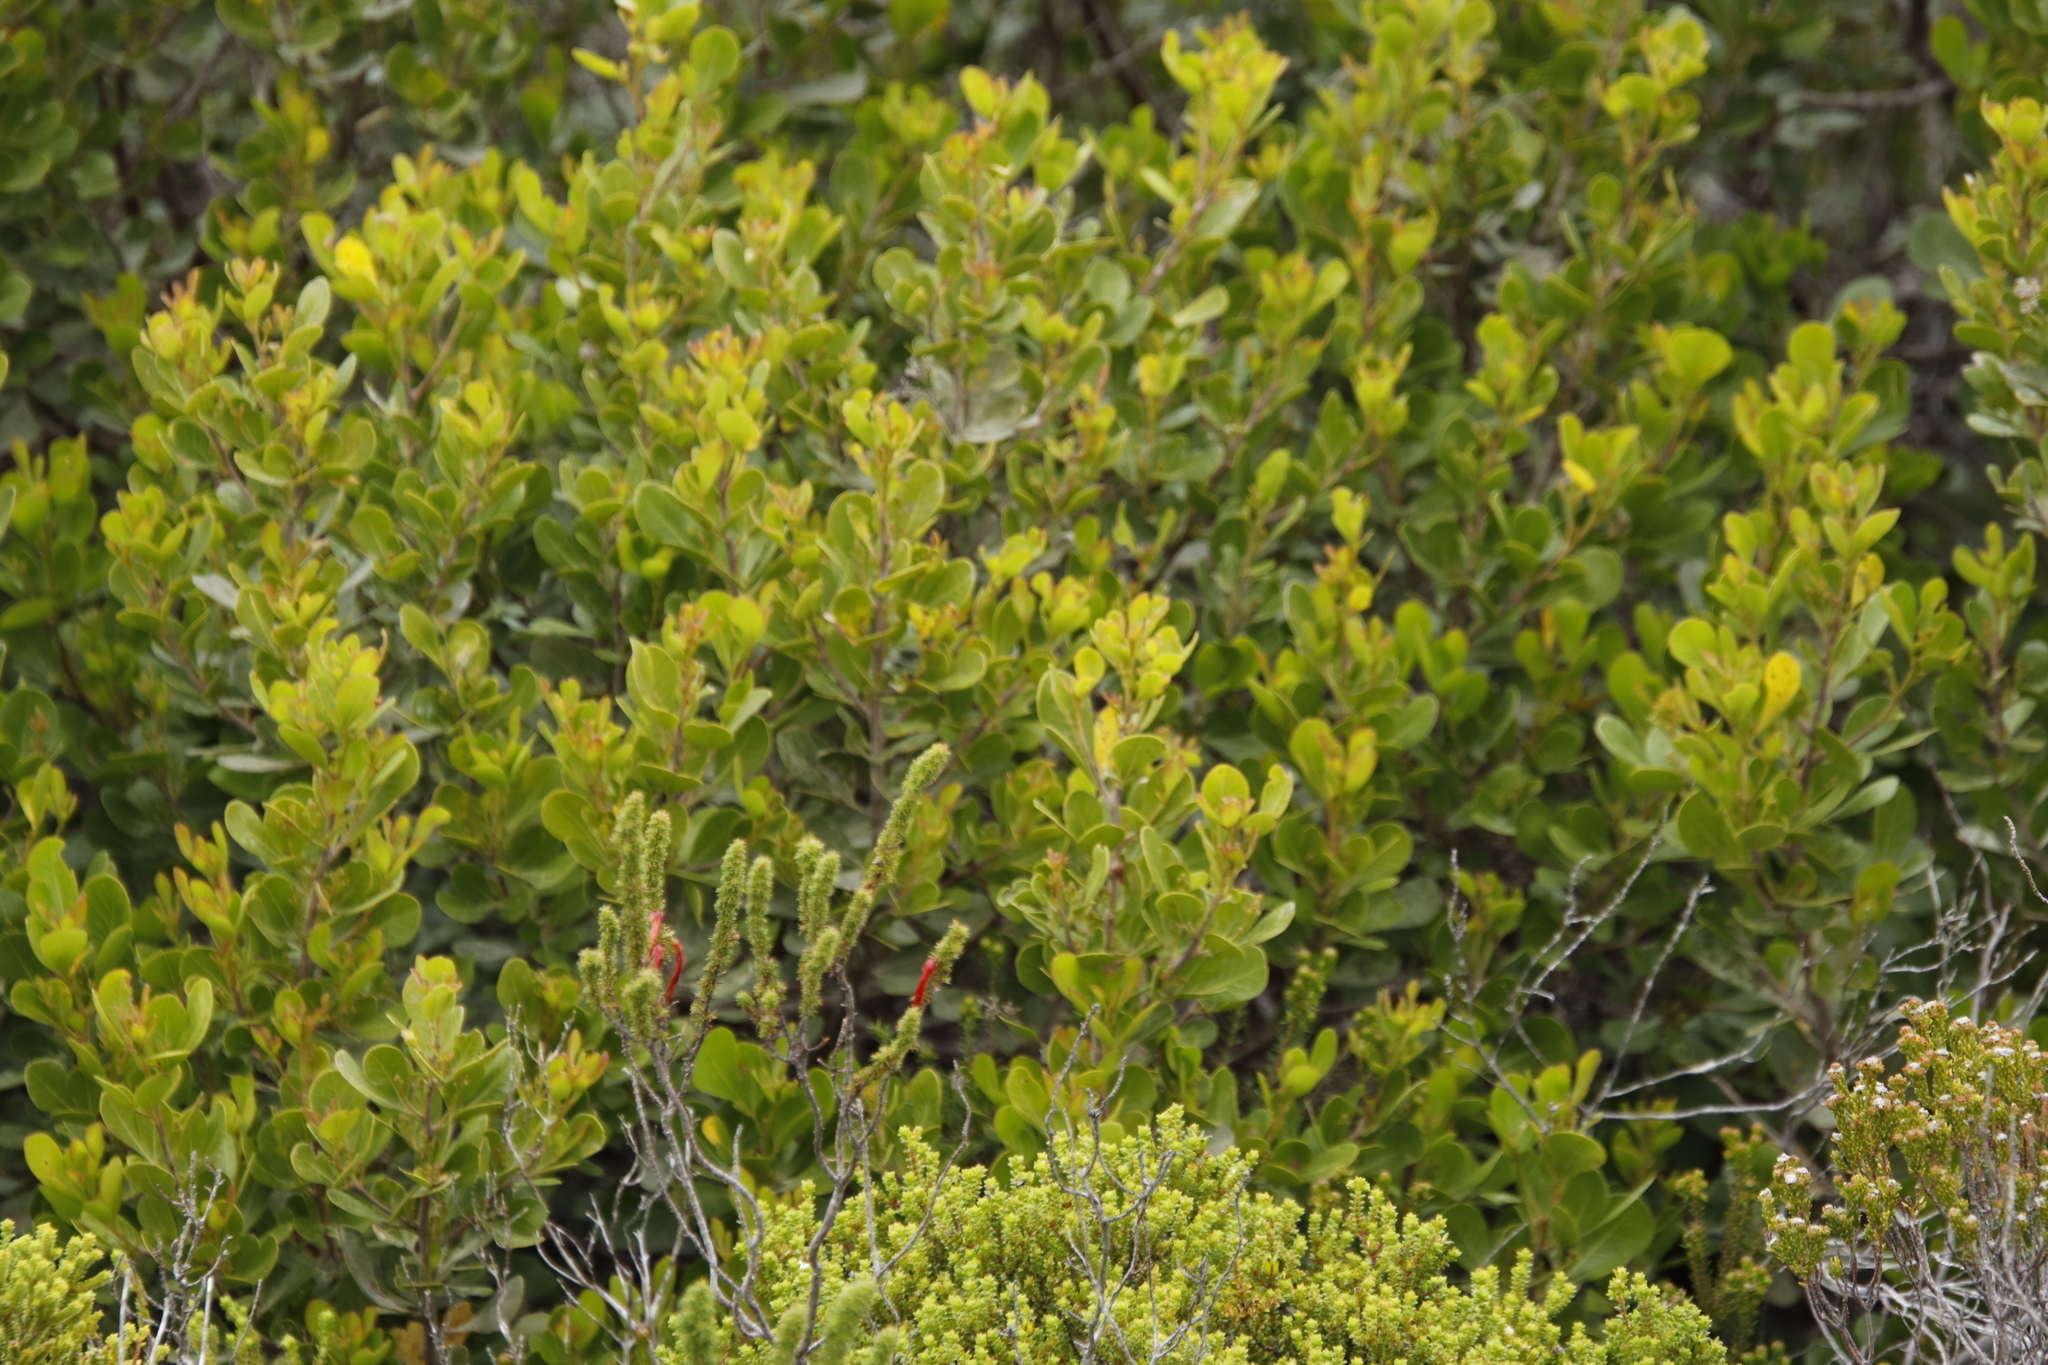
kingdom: Plantae
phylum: Tracheophyta
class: Magnoliopsida
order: Sapindales
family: Anacardiaceae
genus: Searsia
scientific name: Searsia lucida
